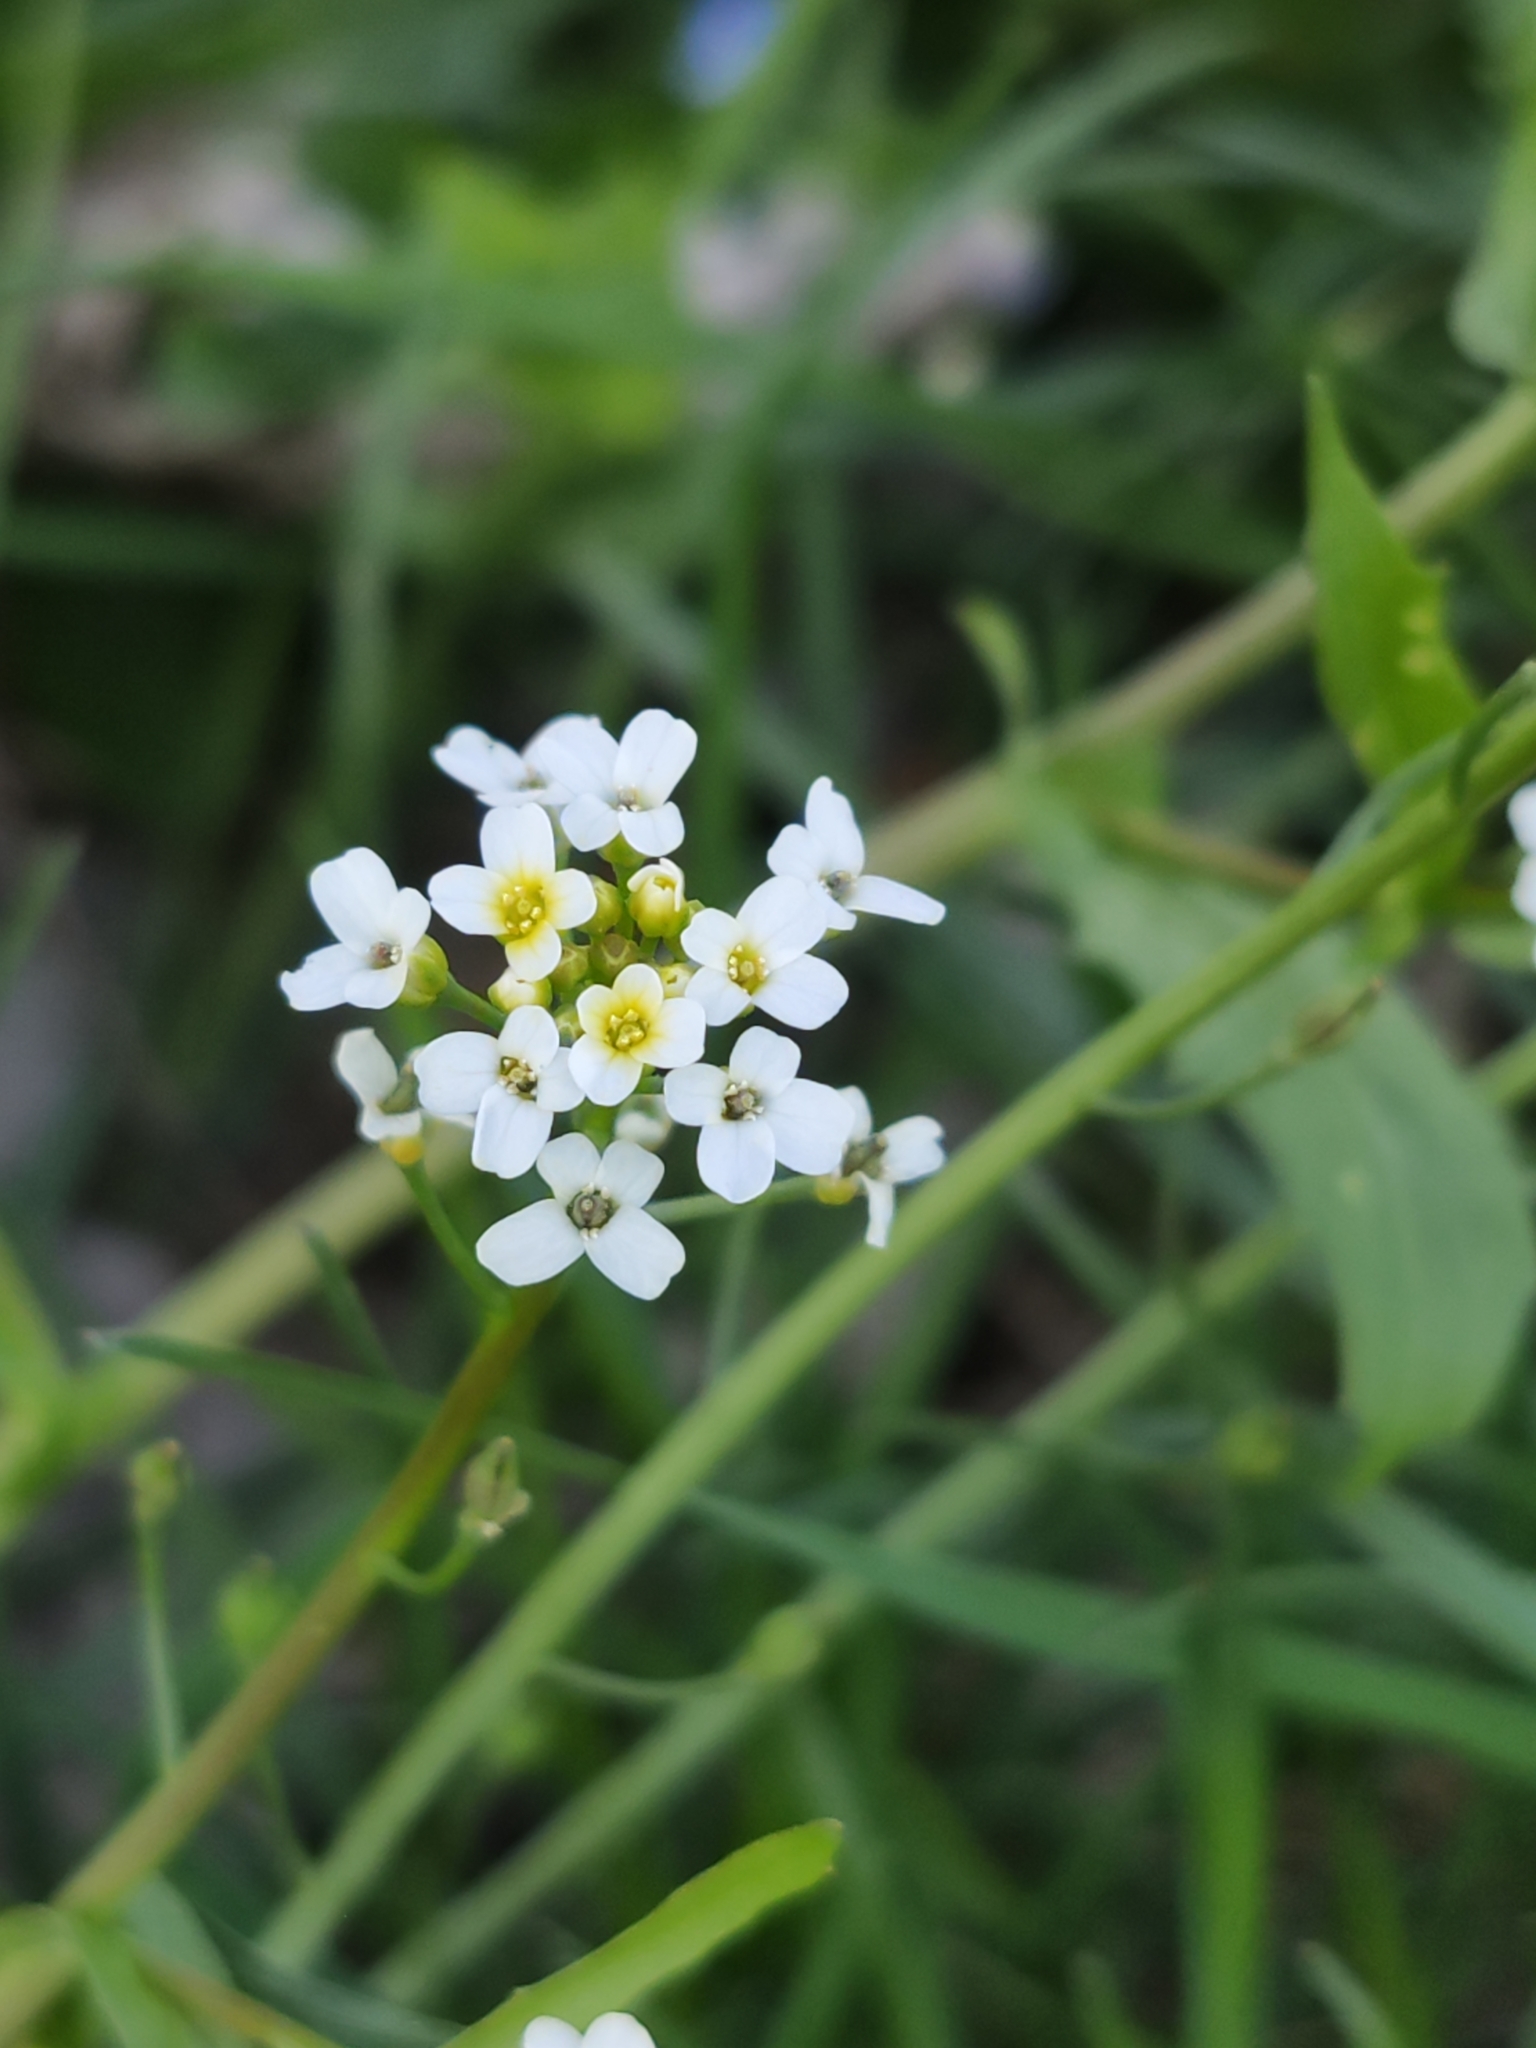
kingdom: Plantae
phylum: Tracheophyta
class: Magnoliopsida
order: Brassicales
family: Brassicaceae
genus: Calepina
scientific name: Calepina irregularis
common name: White ballmustard
